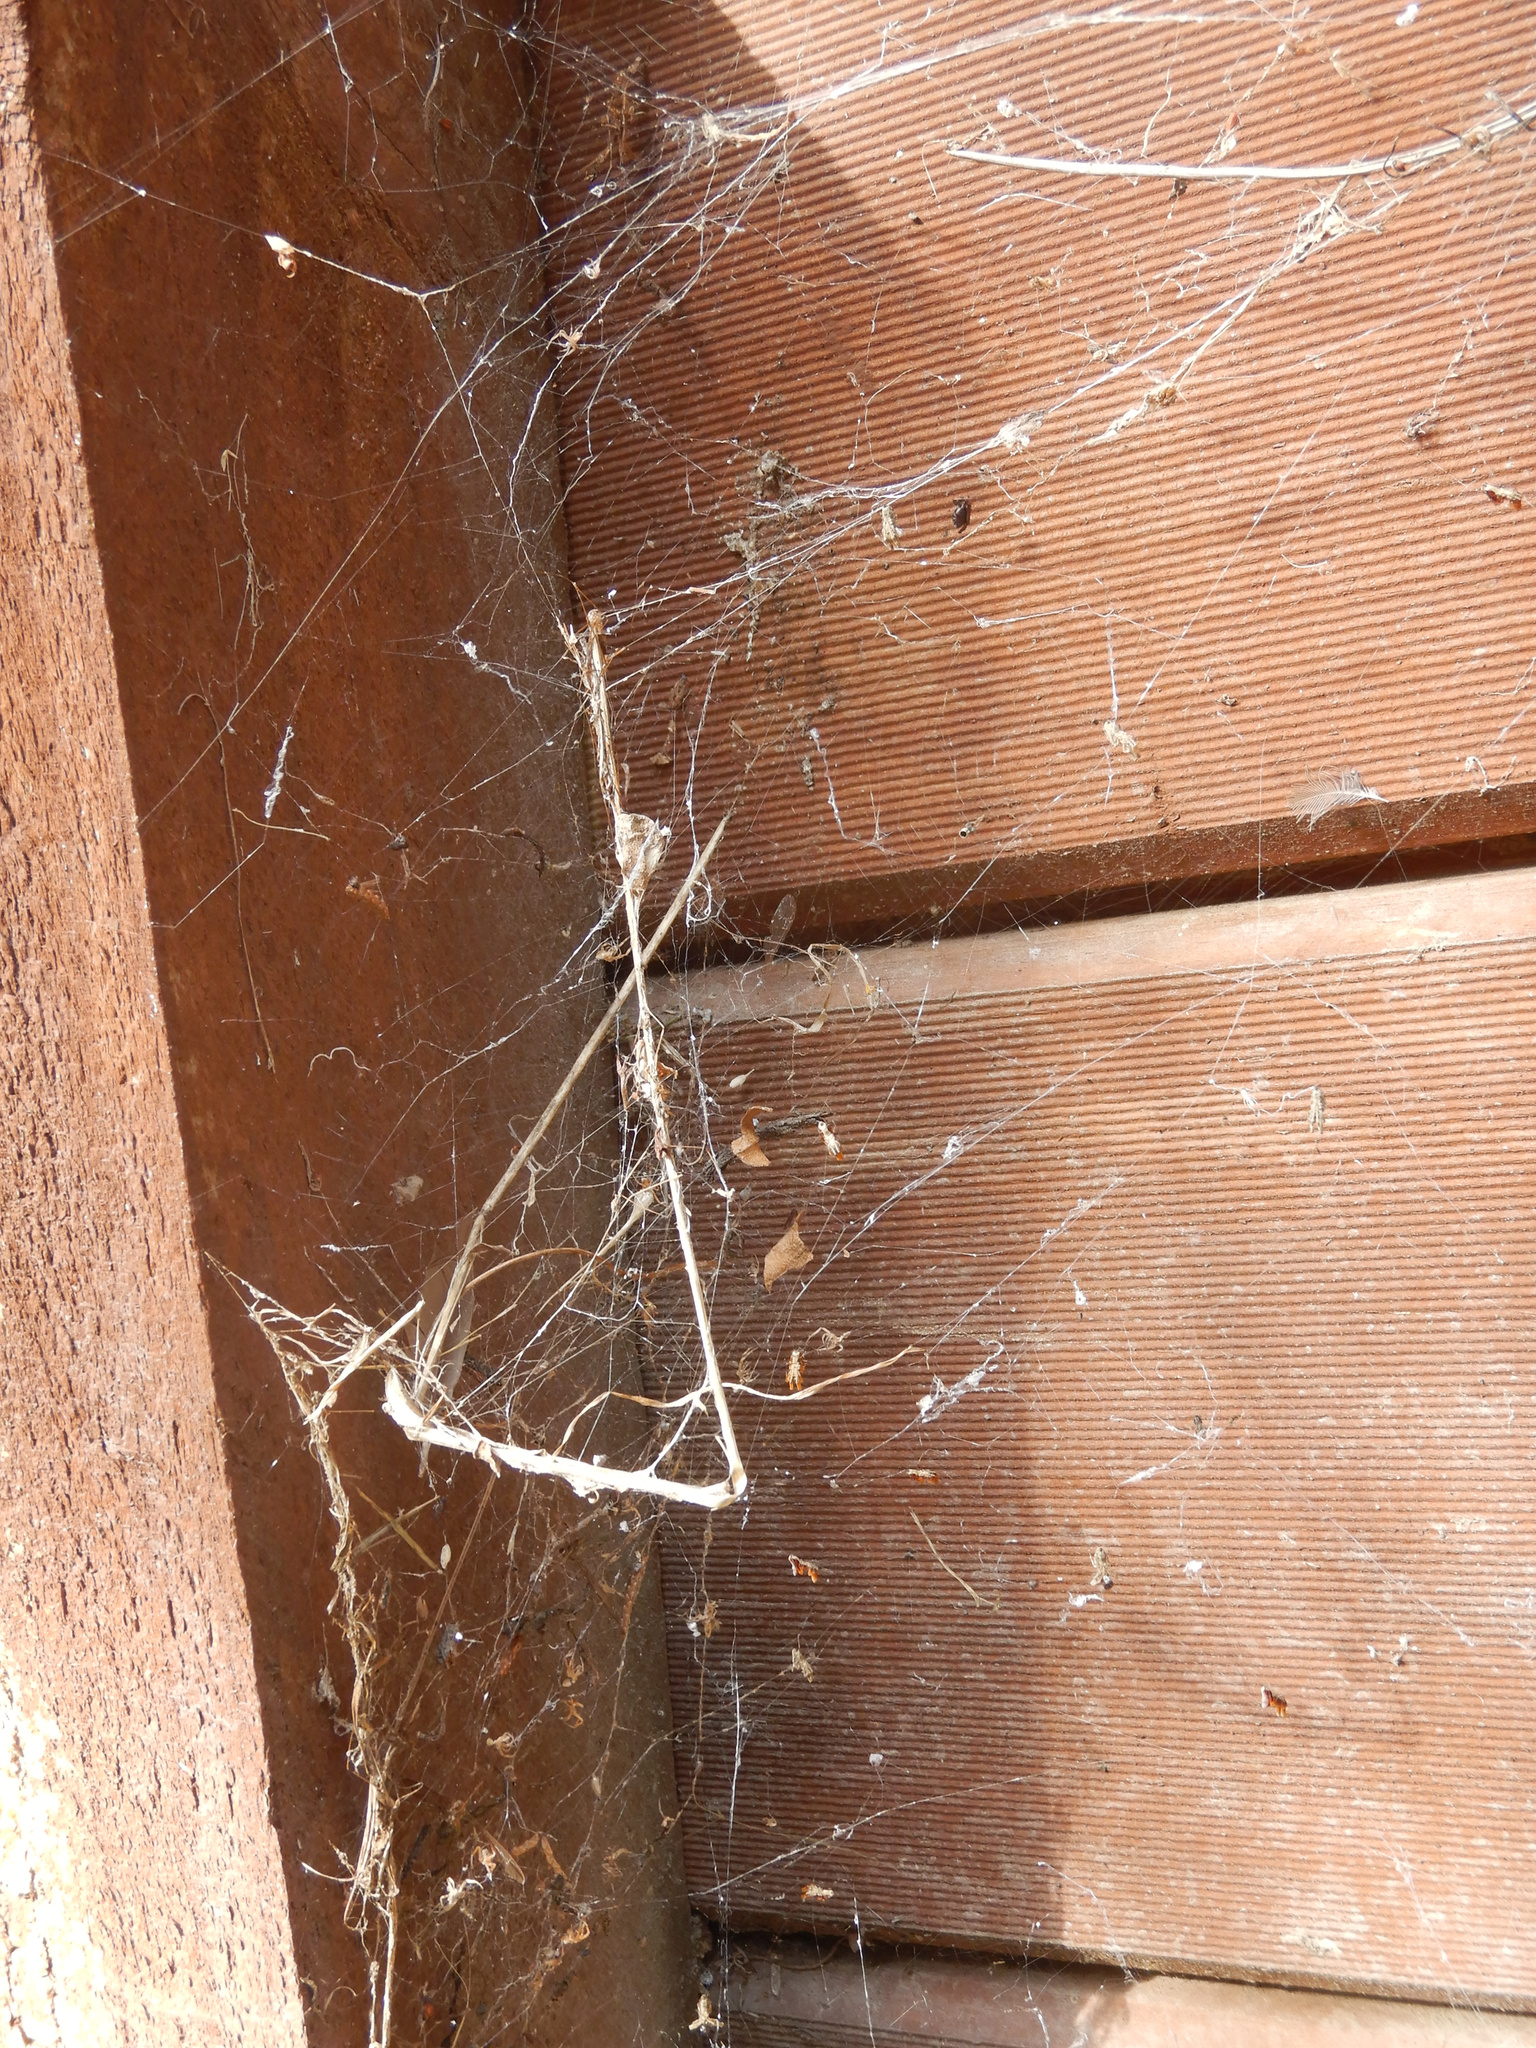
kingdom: Animalia
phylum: Arthropoda
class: Arachnida
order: Araneae
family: Uloboridae
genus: Philoponella
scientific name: Philoponella congregabilis
